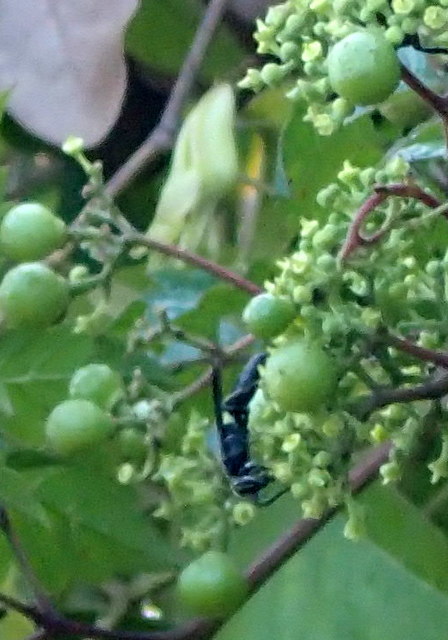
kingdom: Animalia
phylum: Arthropoda
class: Insecta
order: Hymenoptera
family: Eumenidae
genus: Monobia
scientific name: Monobia quadridens
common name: Four-toothed mason wasp
